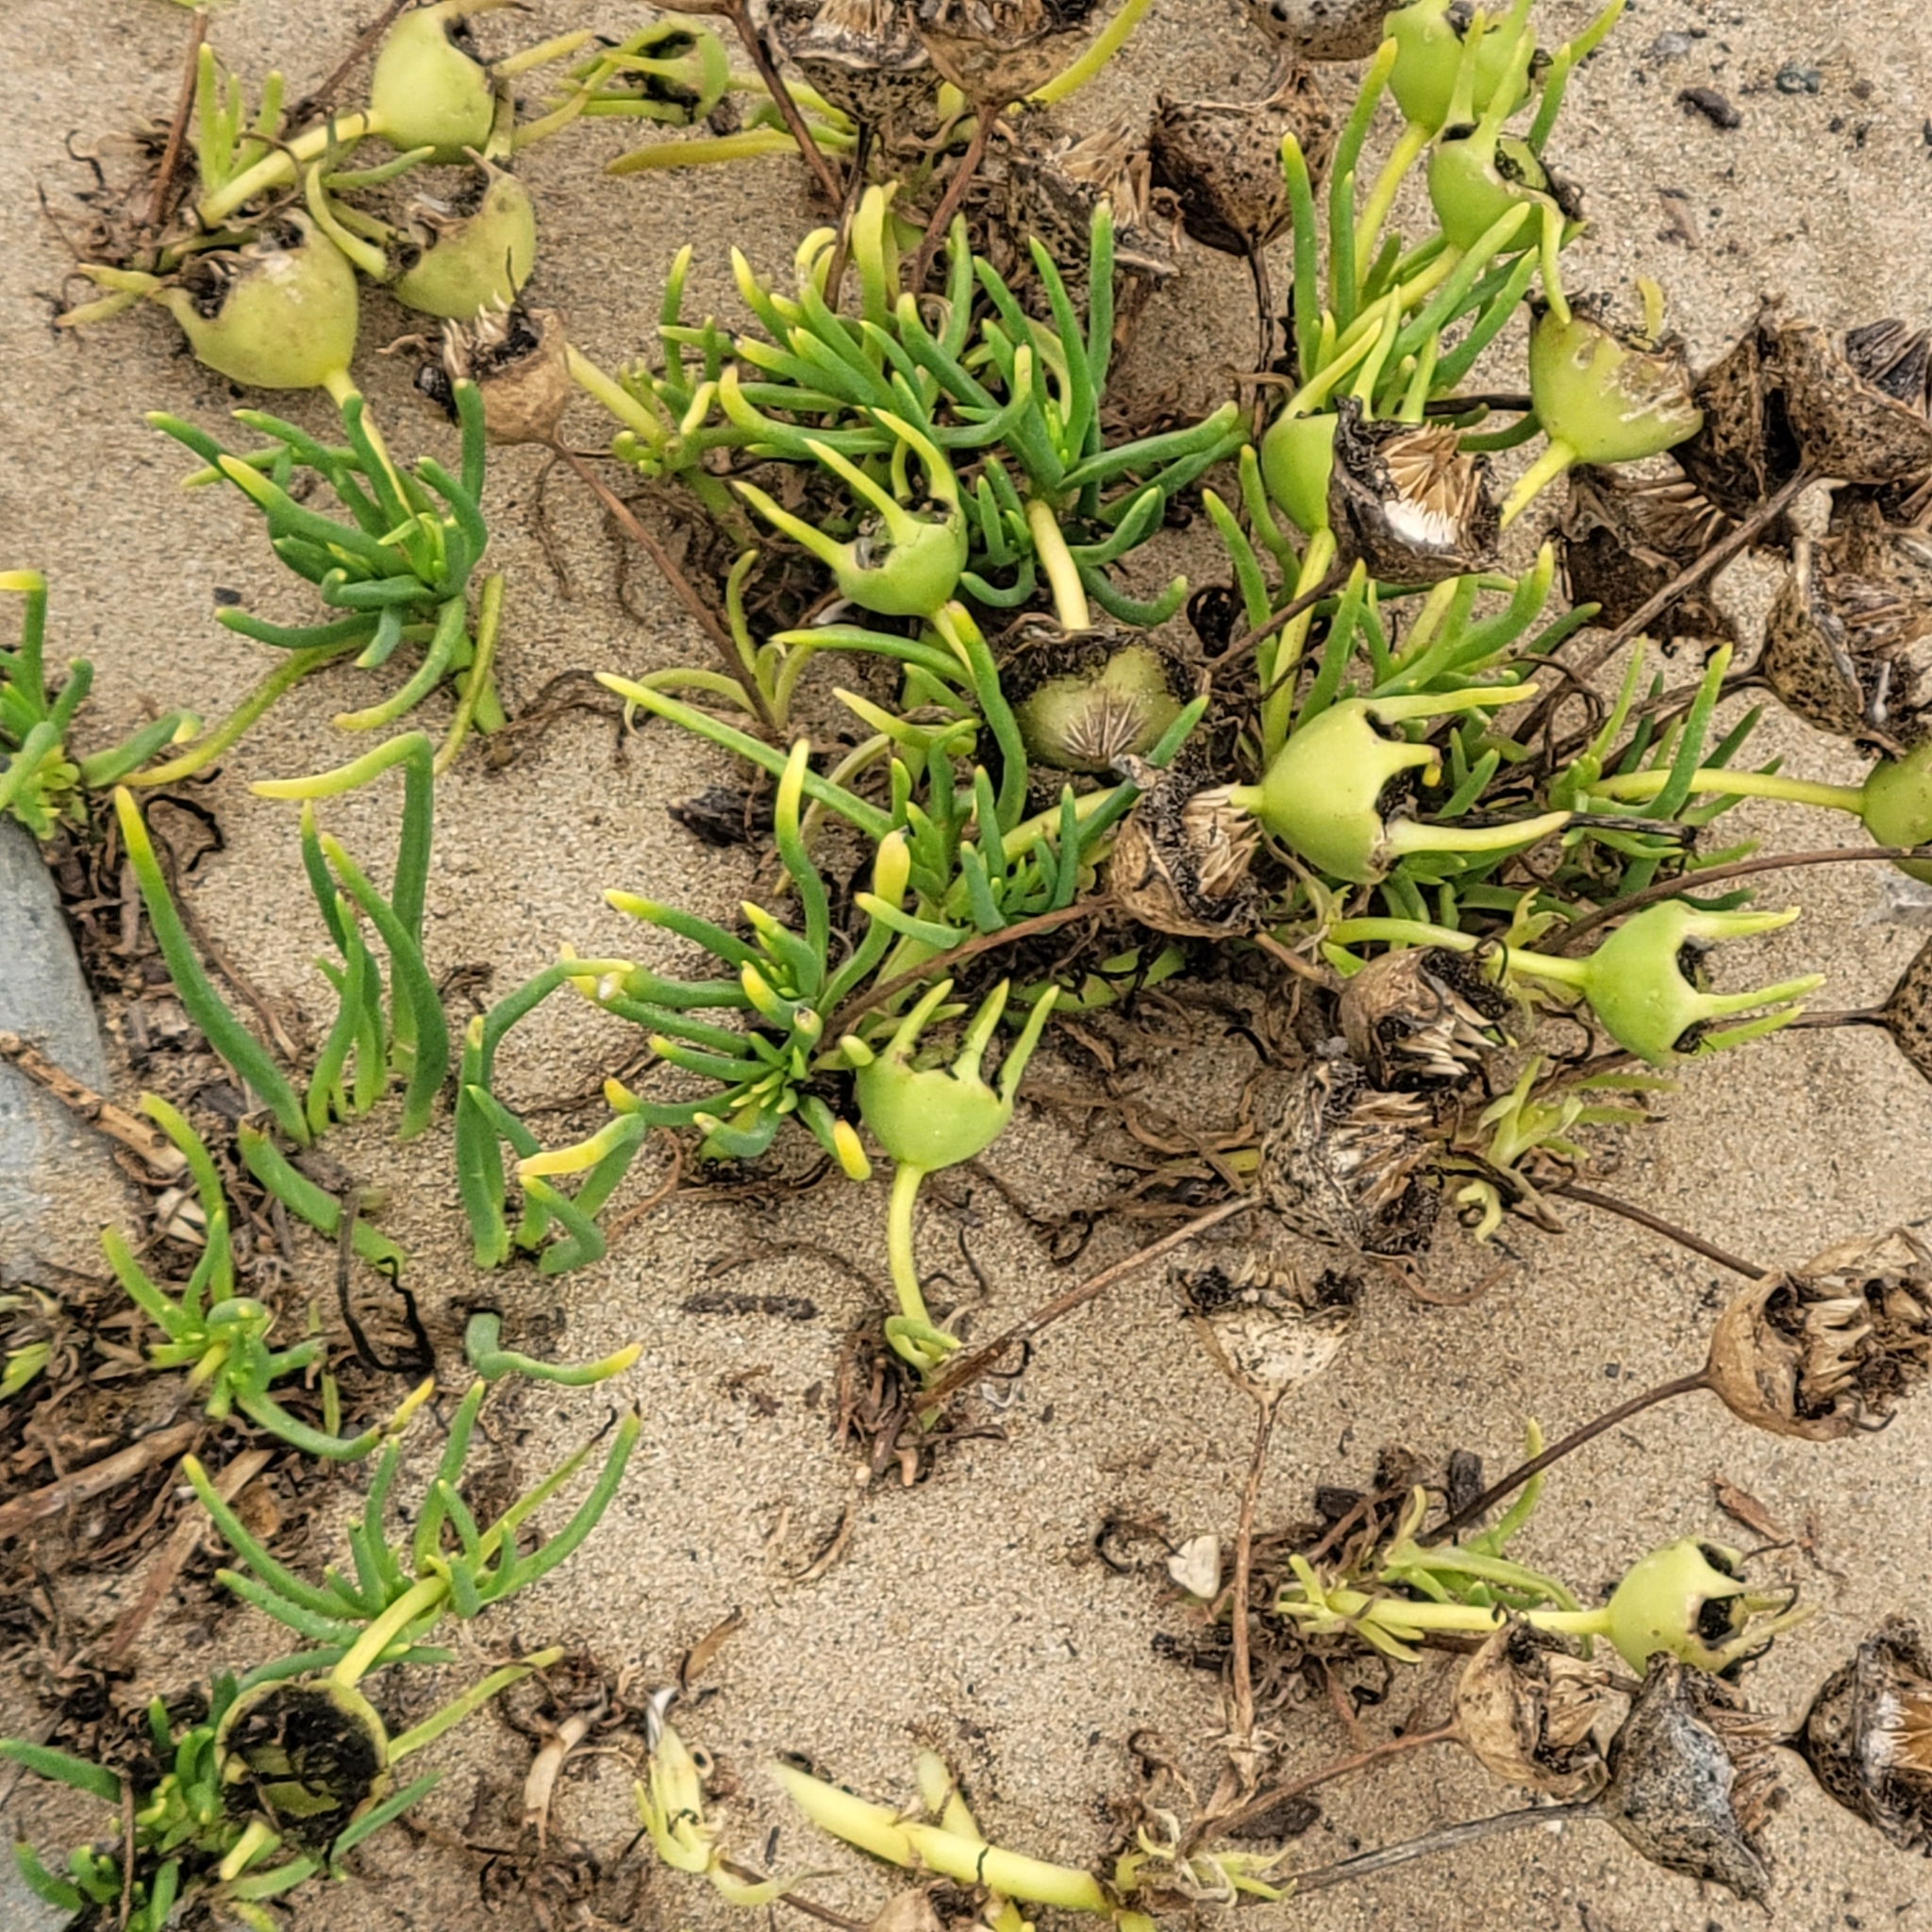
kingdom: Plantae
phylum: Tracheophyta
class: Magnoliopsida
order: Caryophyllales
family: Aizoaceae
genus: Conicosia
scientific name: Conicosia pugioniformis
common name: Narrow-leaved iceplant
